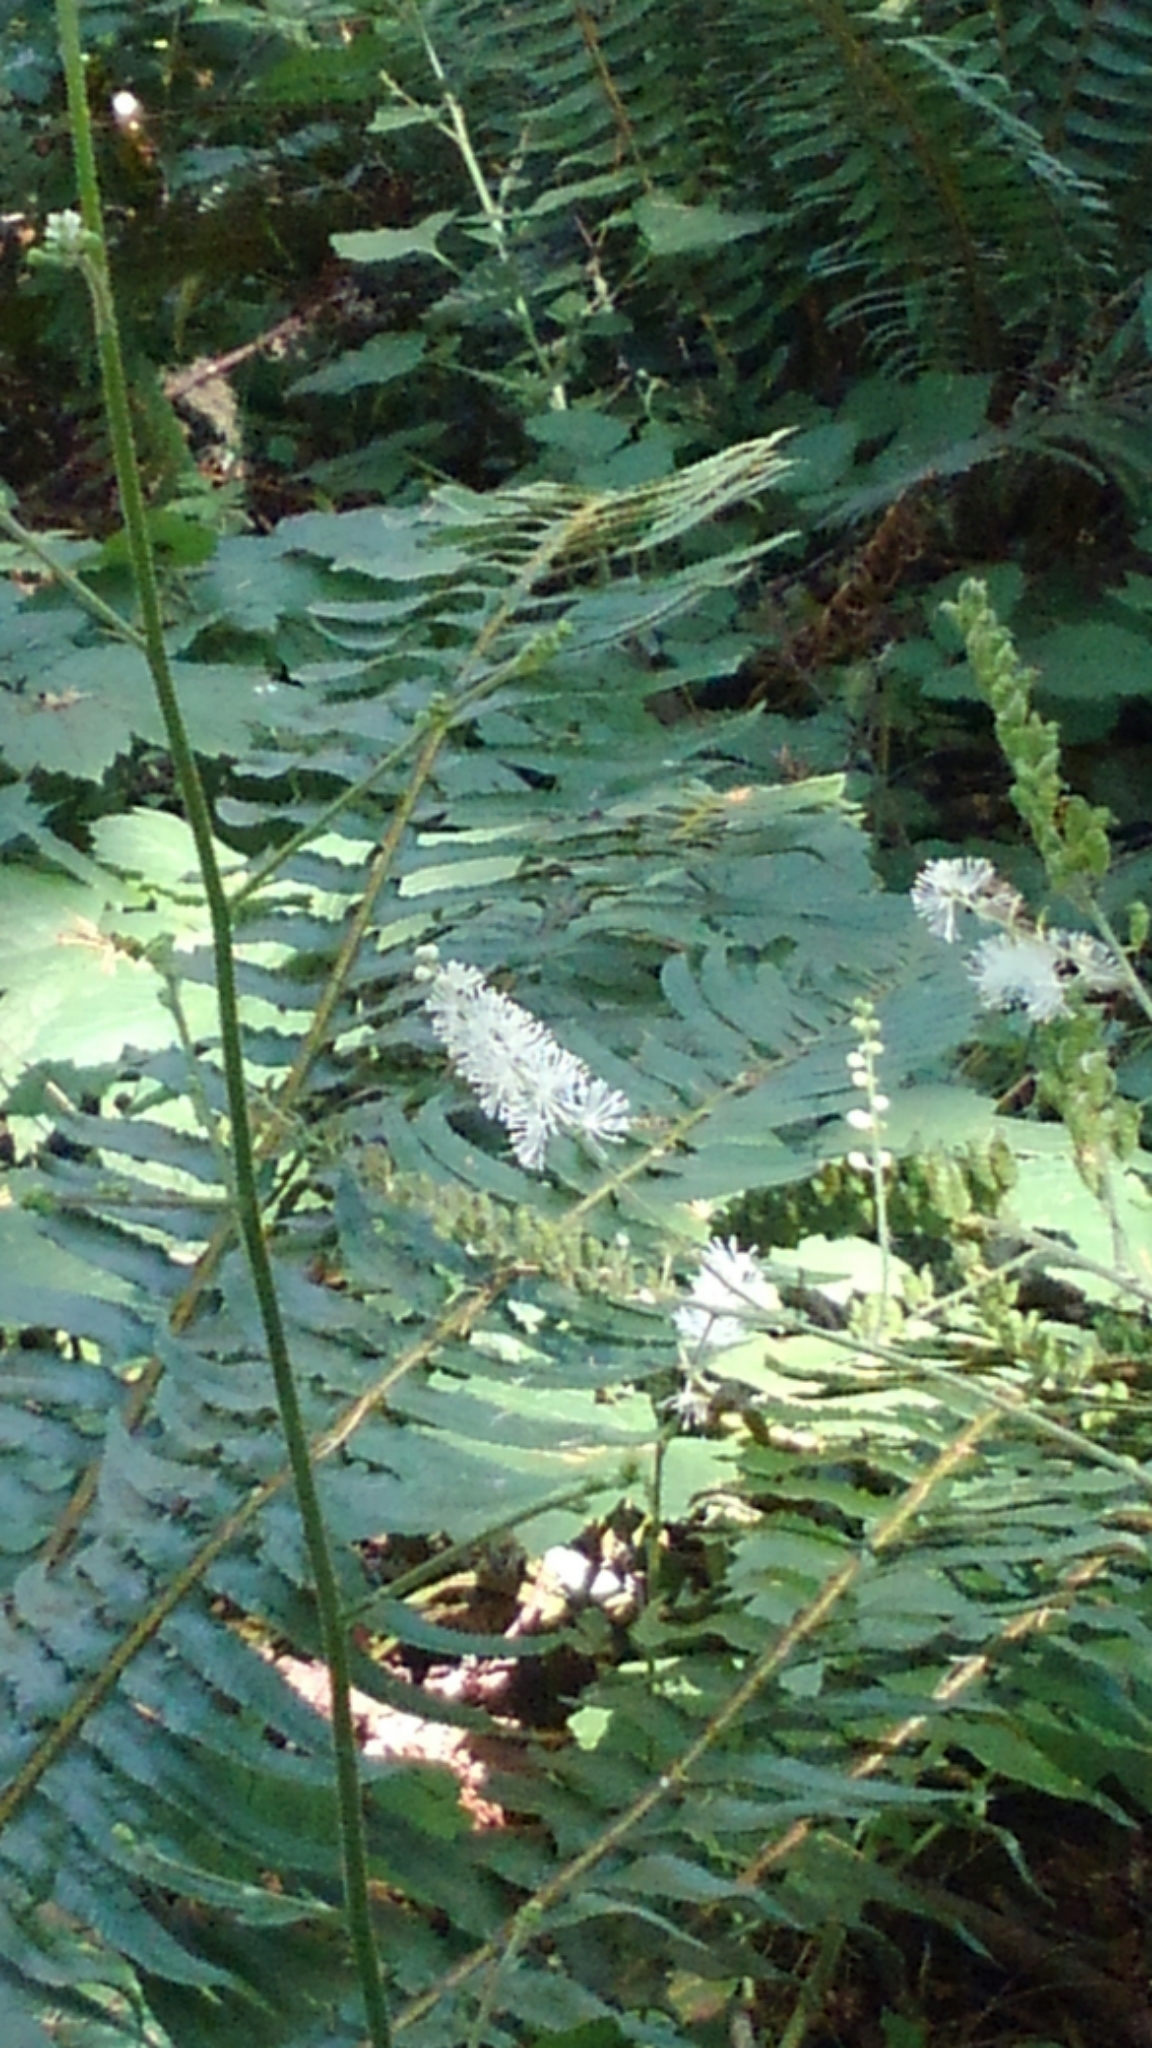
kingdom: Plantae
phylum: Tracheophyta
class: Magnoliopsida
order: Ranunculales
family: Ranunculaceae
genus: Actaea
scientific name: Actaea elata
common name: Tall bugbane
